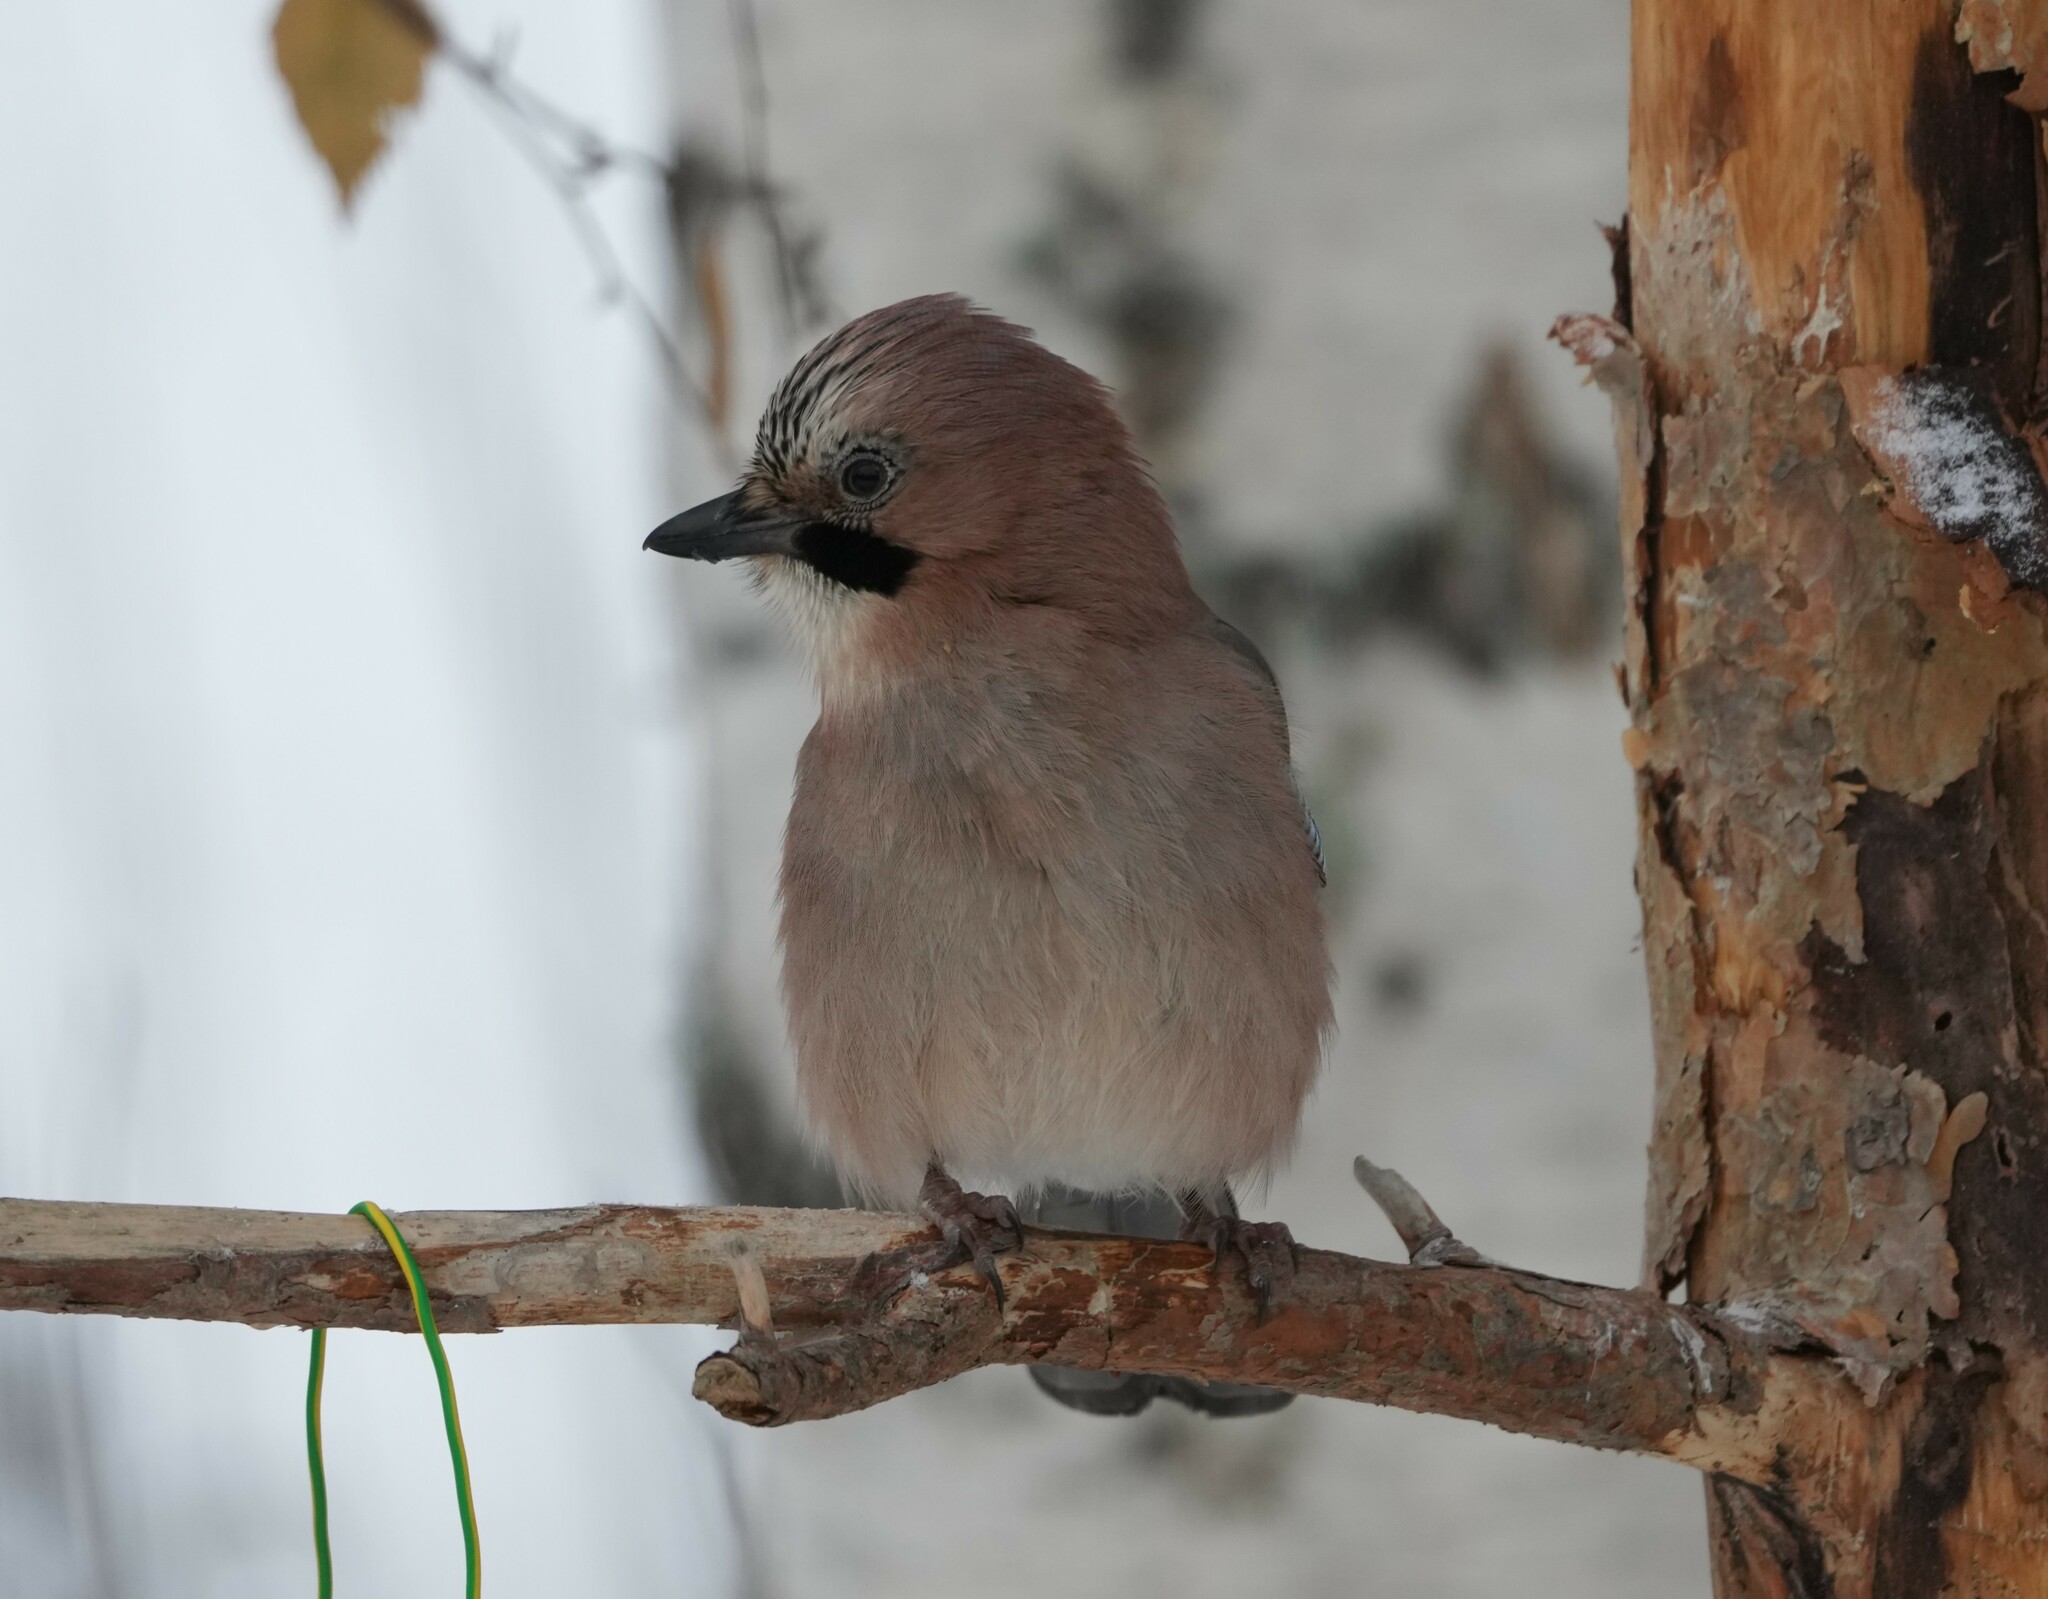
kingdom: Animalia
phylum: Chordata
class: Aves
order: Passeriformes
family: Corvidae
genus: Garrulus
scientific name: Garrulus glandarius
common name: Eurasian jay
